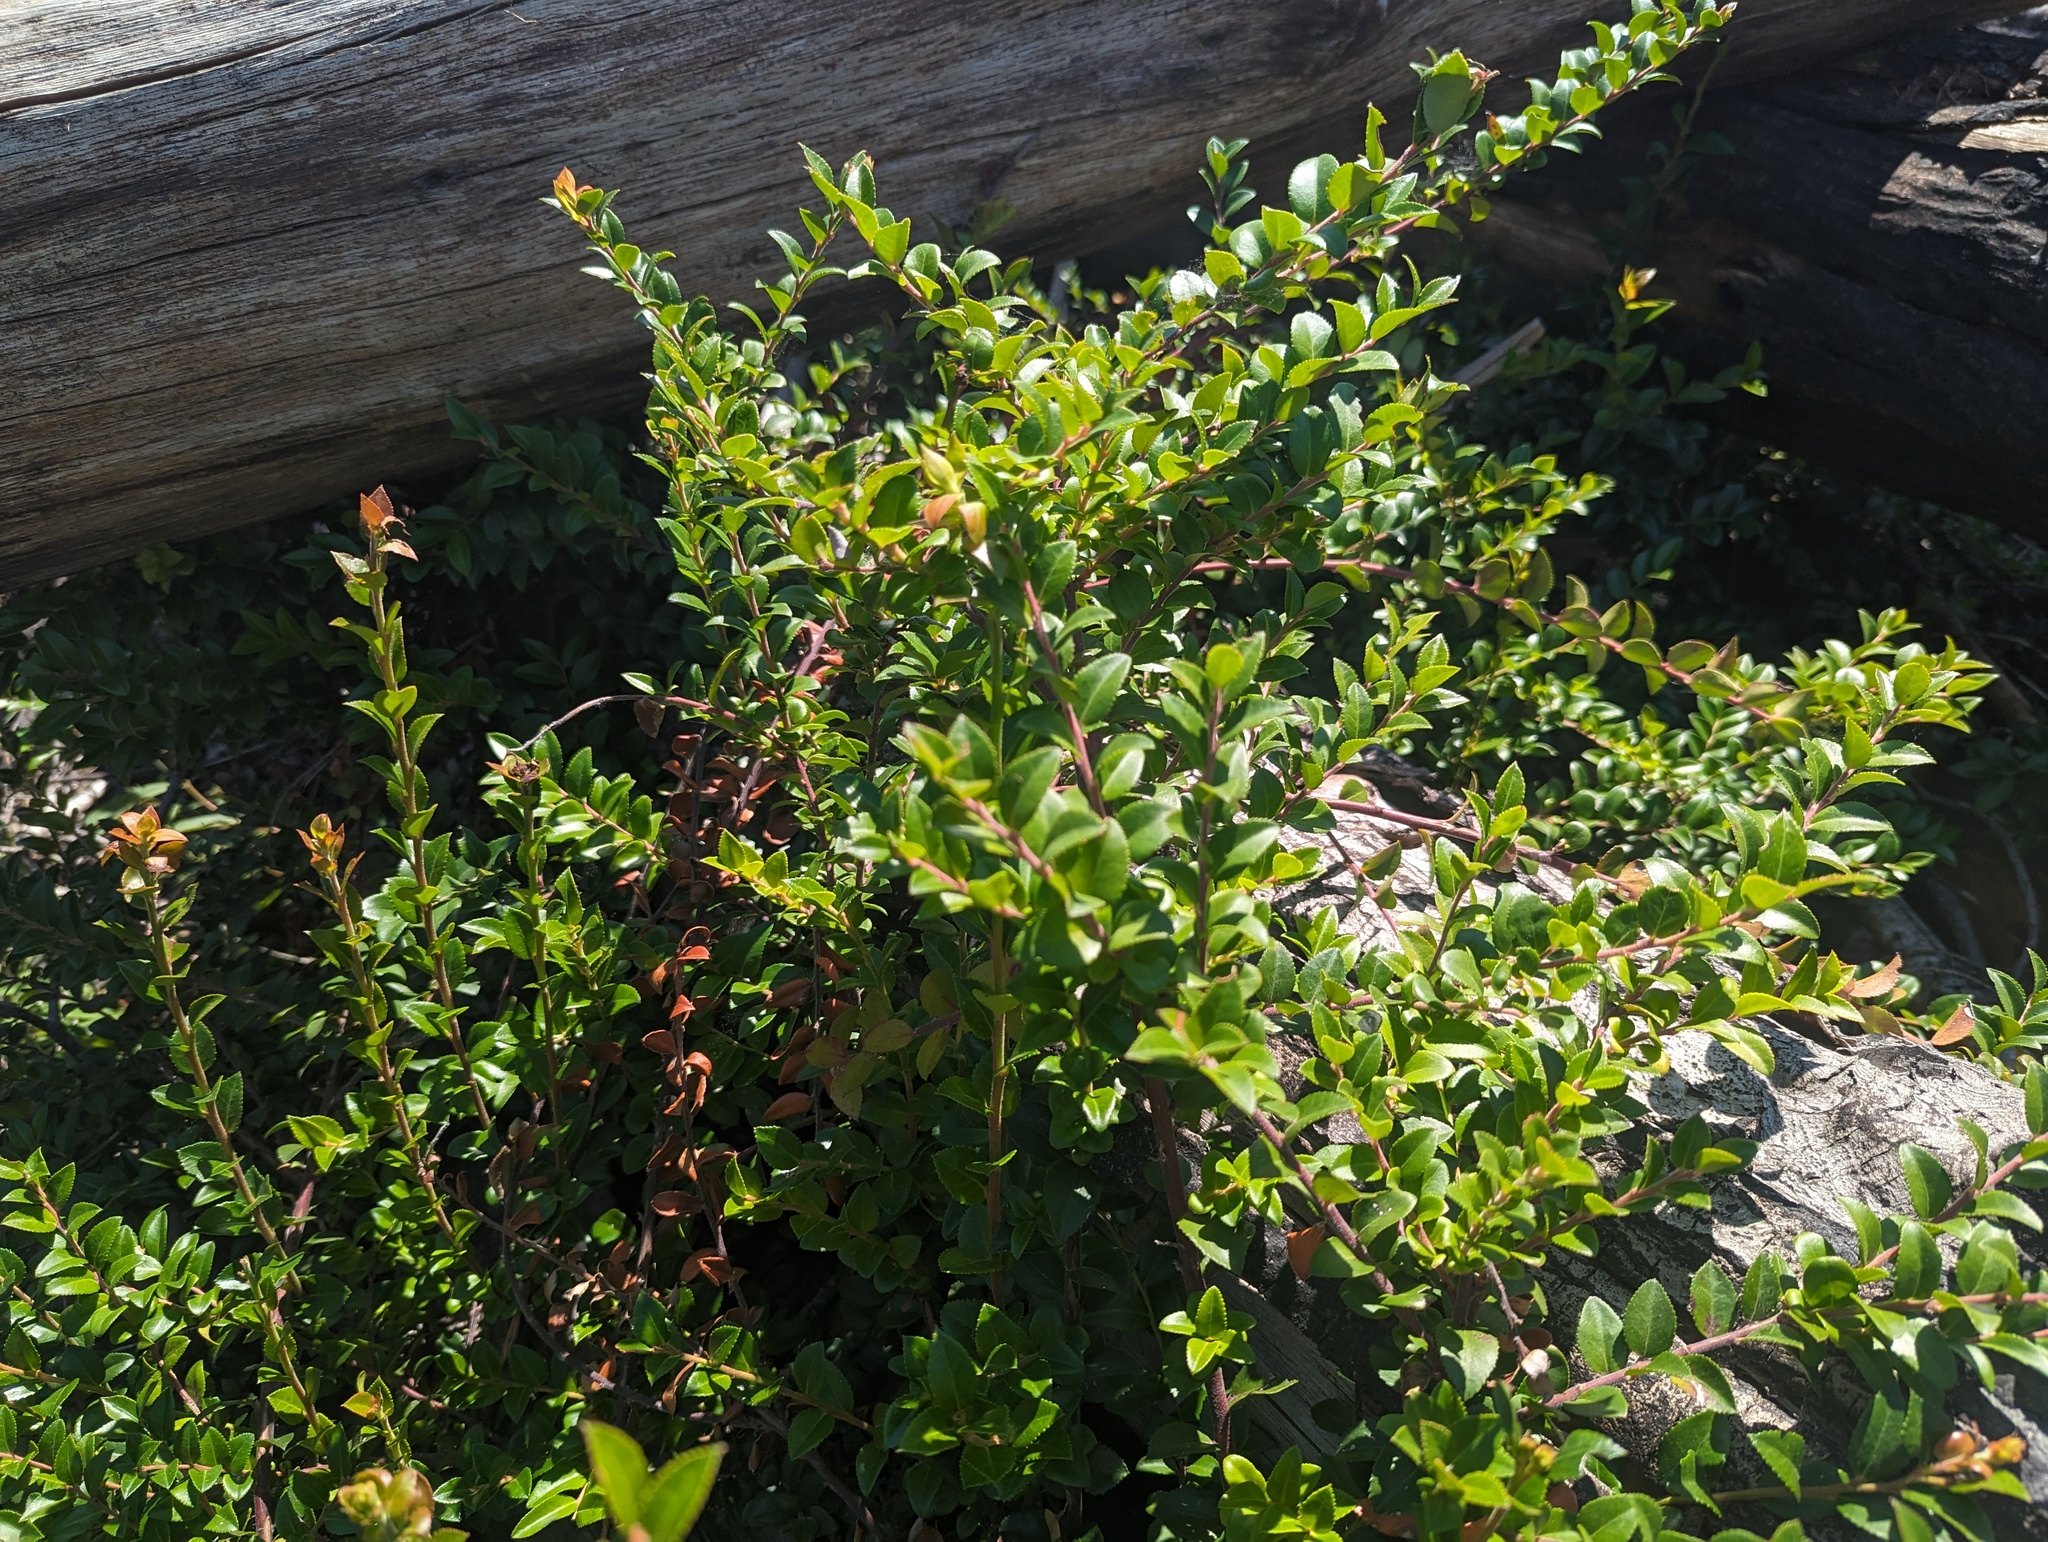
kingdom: Plantae
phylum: Tracheophyta
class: Magnoliopsida
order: Ericales
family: Ericaceae
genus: Vaccinium
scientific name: Vaccinium ovatum
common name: California-huckleberry
